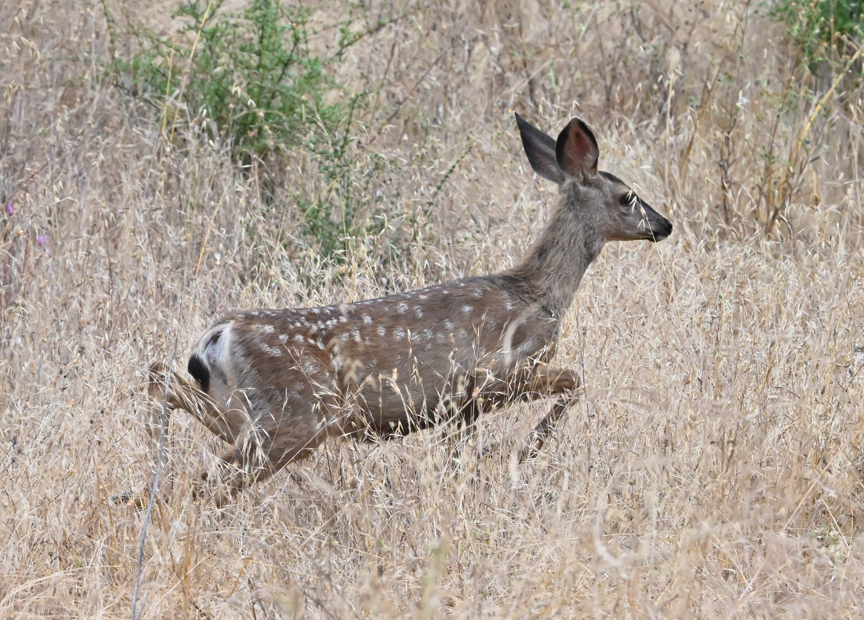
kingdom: Animalia
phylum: Chordata
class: Mammalia
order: Artiodactyla
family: Cervidae
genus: Odocoileus
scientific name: Odocoileus hemionus
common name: Mule deer
